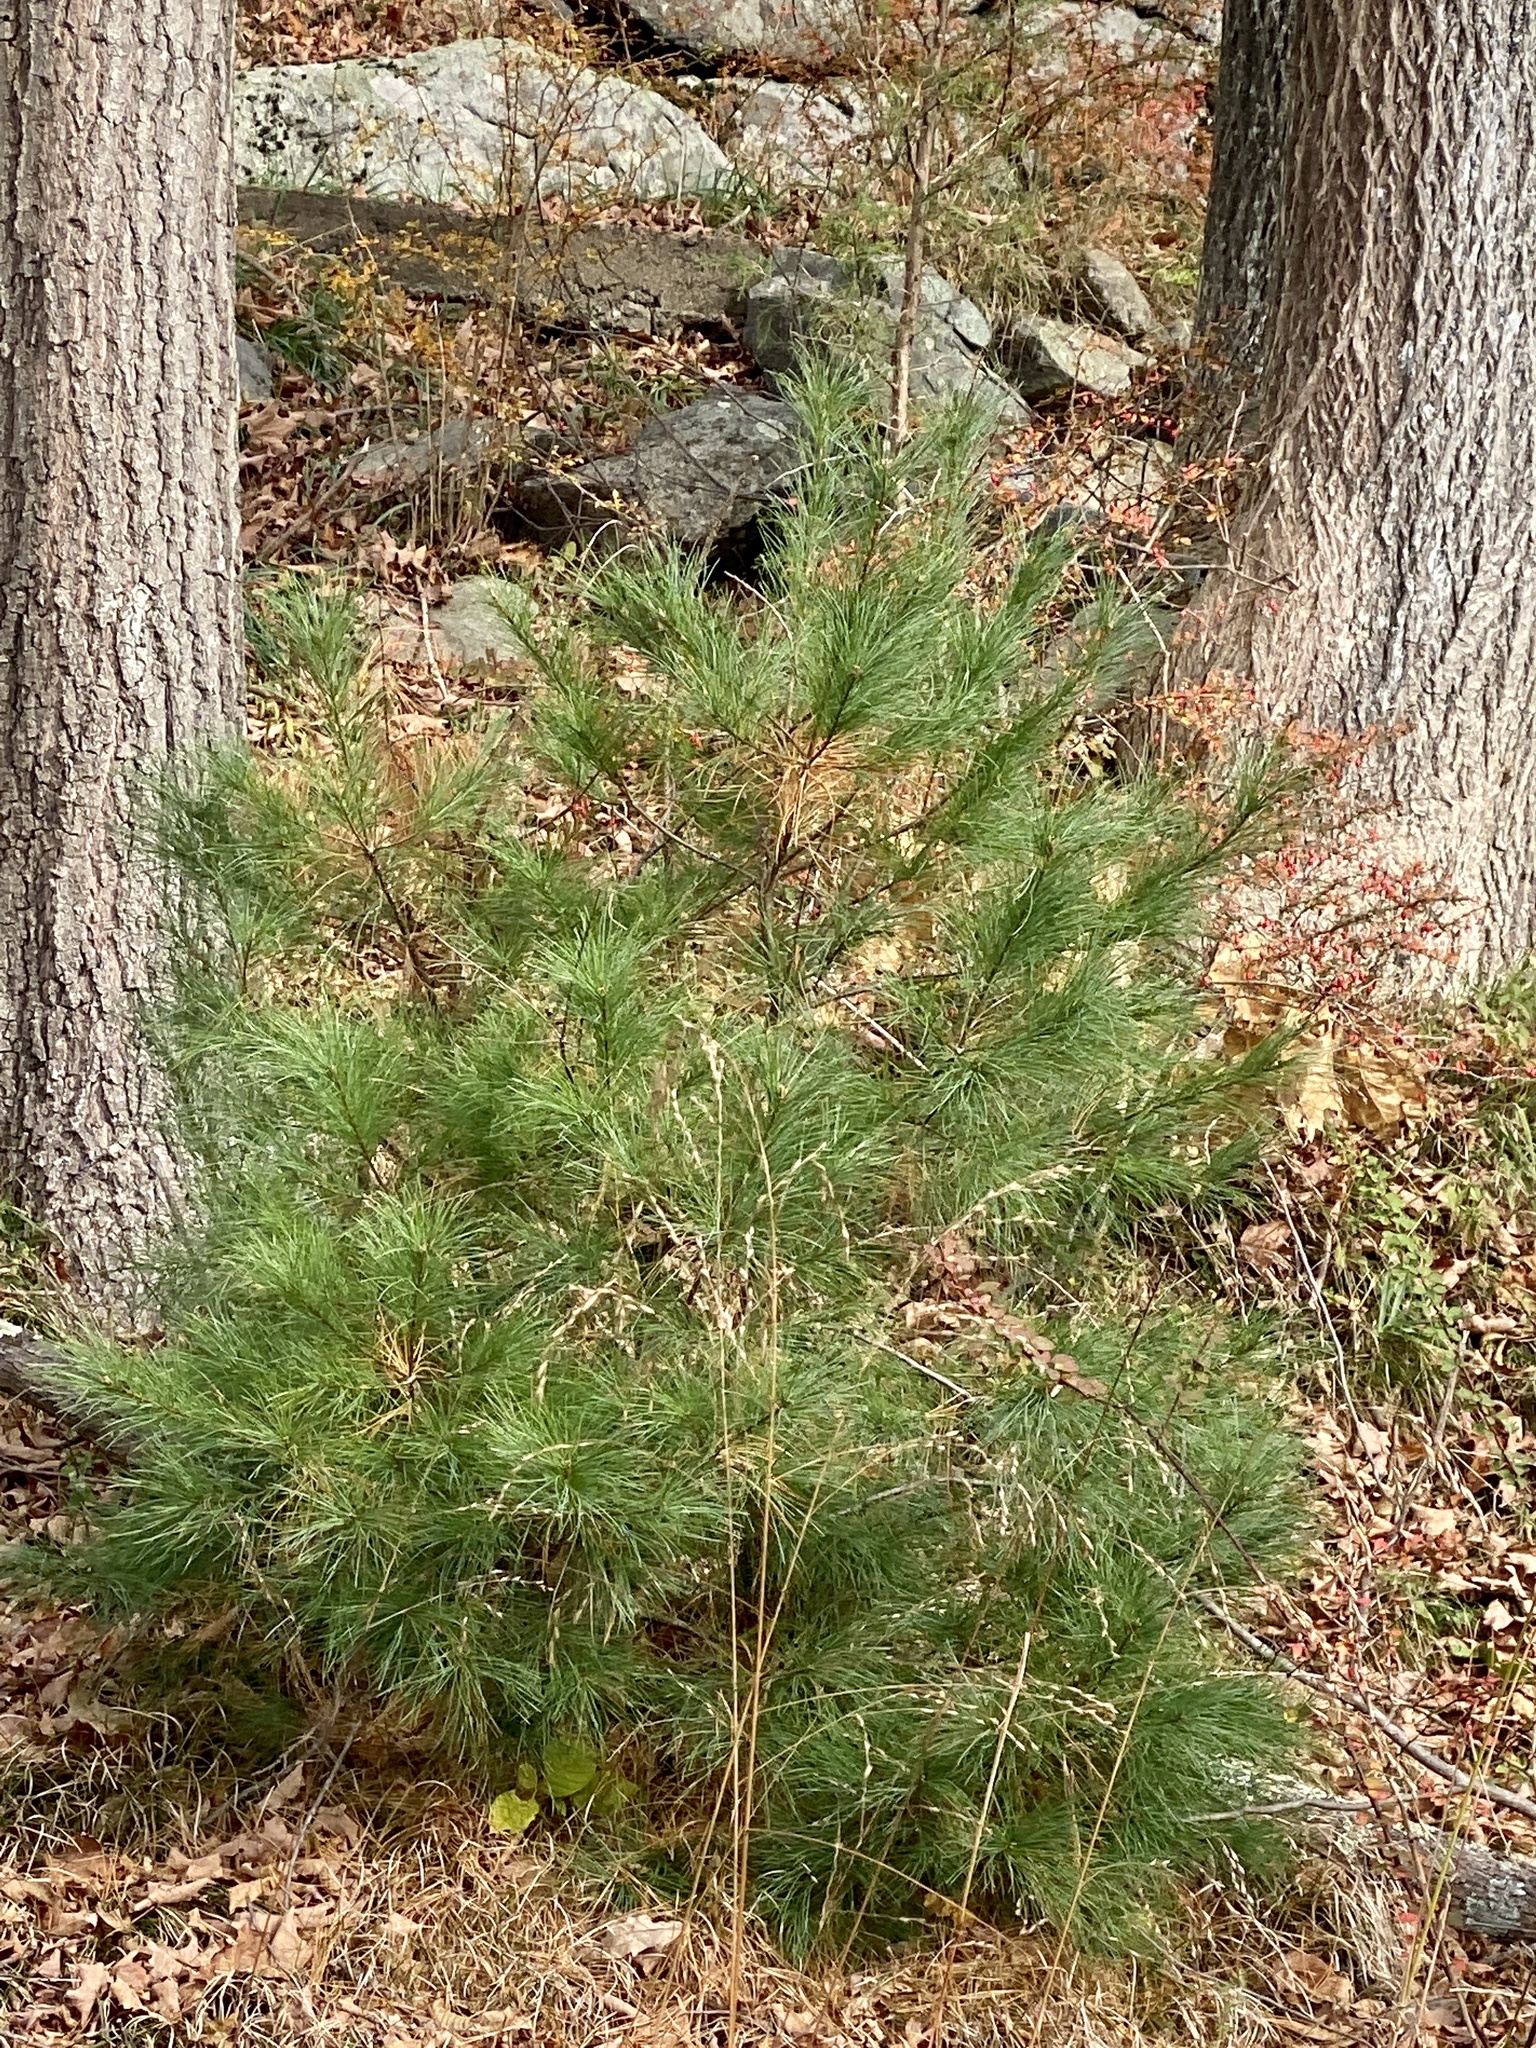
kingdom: Plantae
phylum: Tracheophyta
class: Pinopsida
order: Pinales
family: Pinaceae
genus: Pinus
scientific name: Pinus strobus
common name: Weymouth pine
